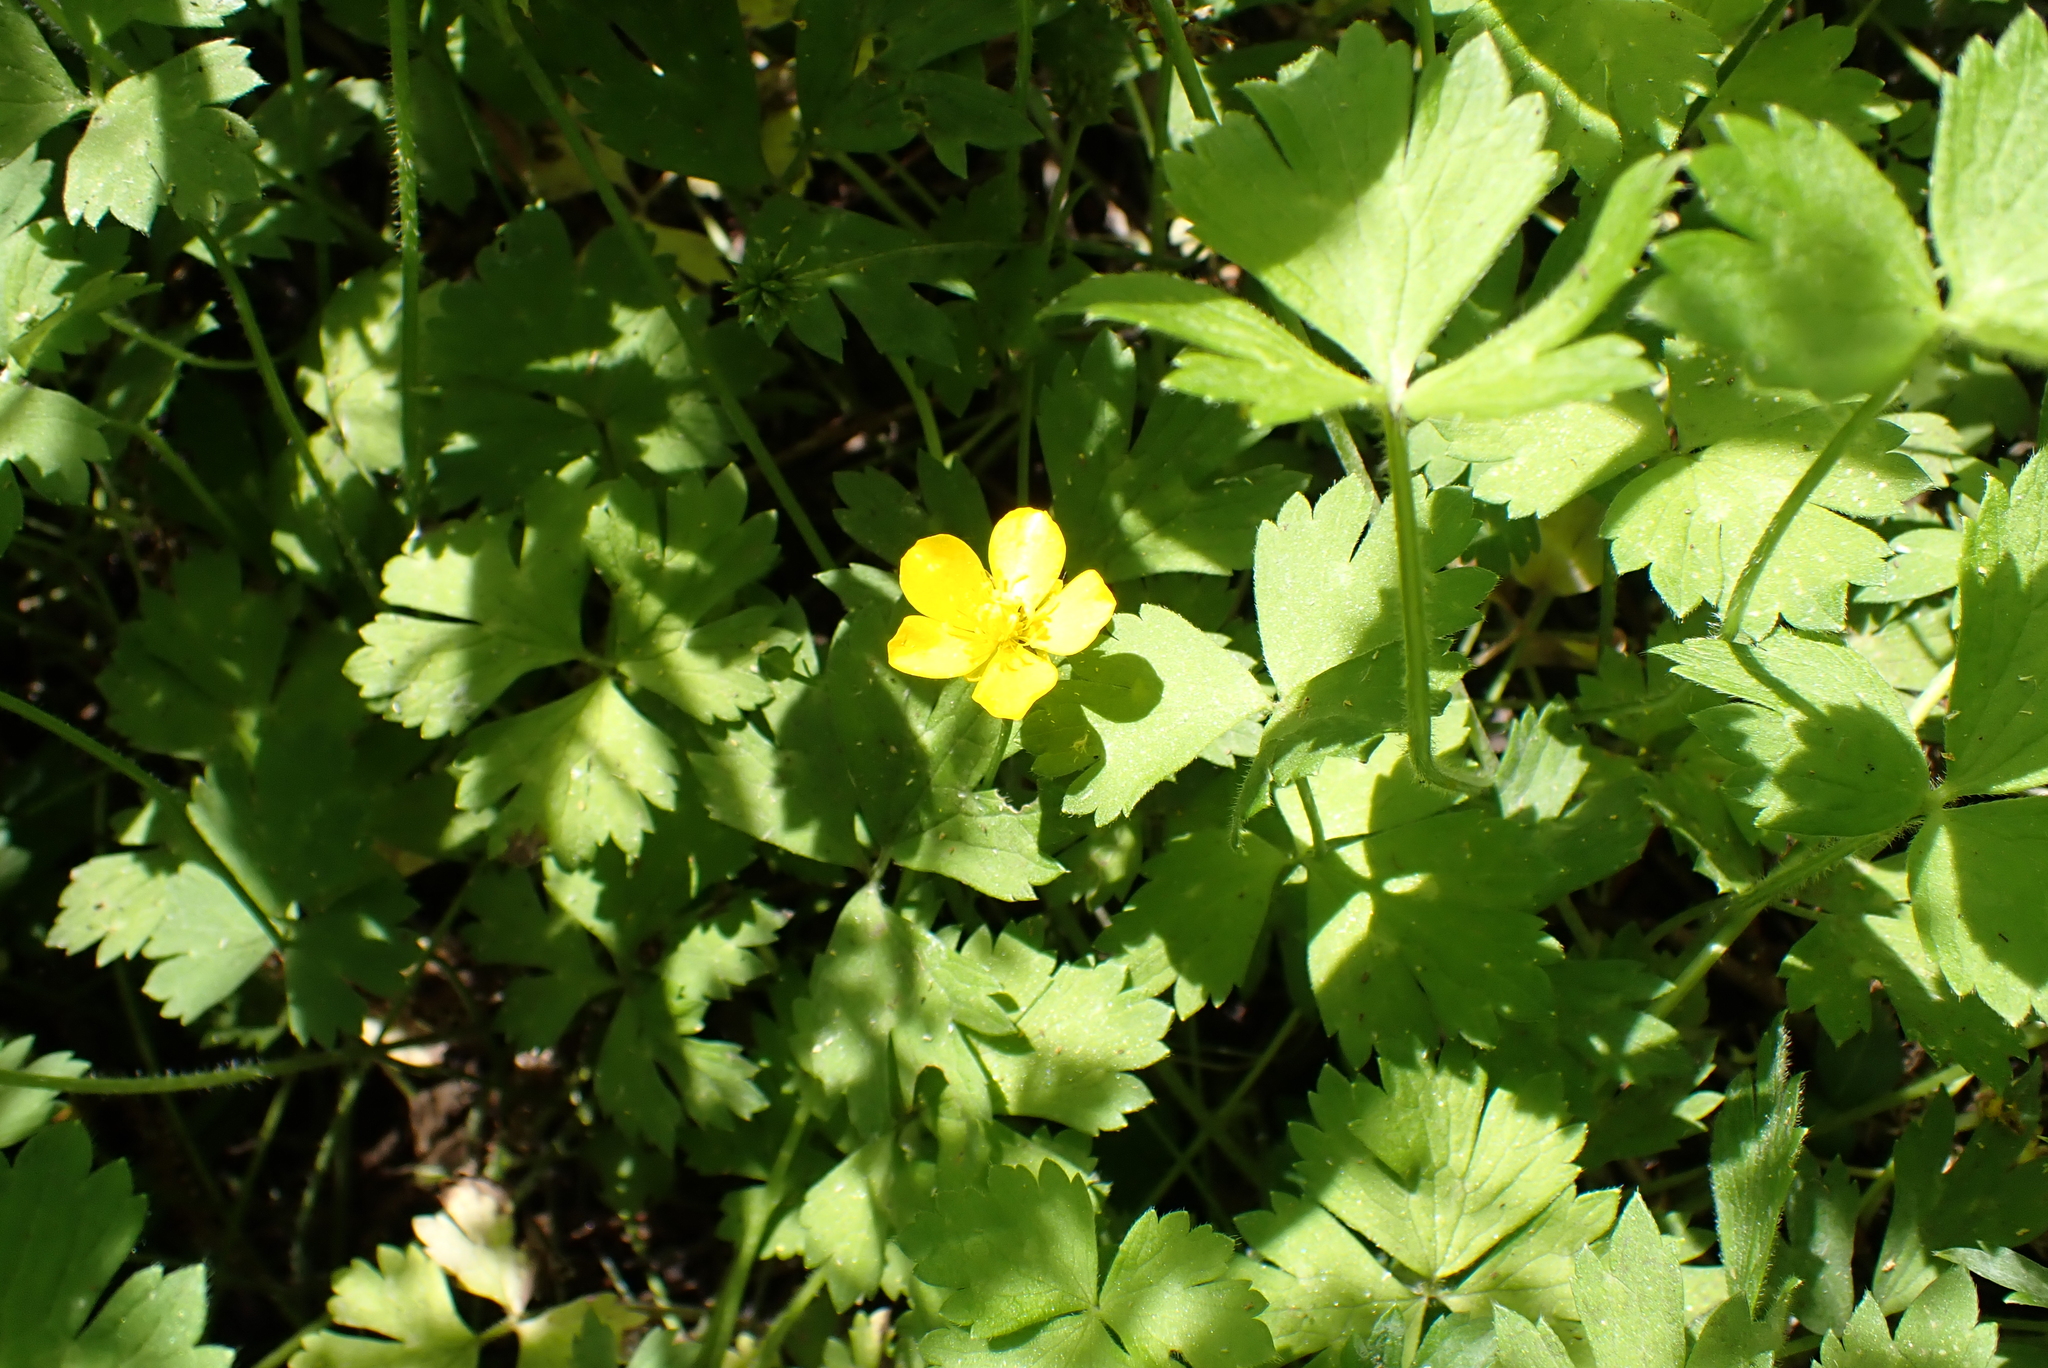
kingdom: Plantae
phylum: Tracheophyta
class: Magnoliopsida
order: Ranunculales
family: Ranunculaceae
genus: Ranunculus
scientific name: Ranunculus repens
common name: Creeping buttercup
